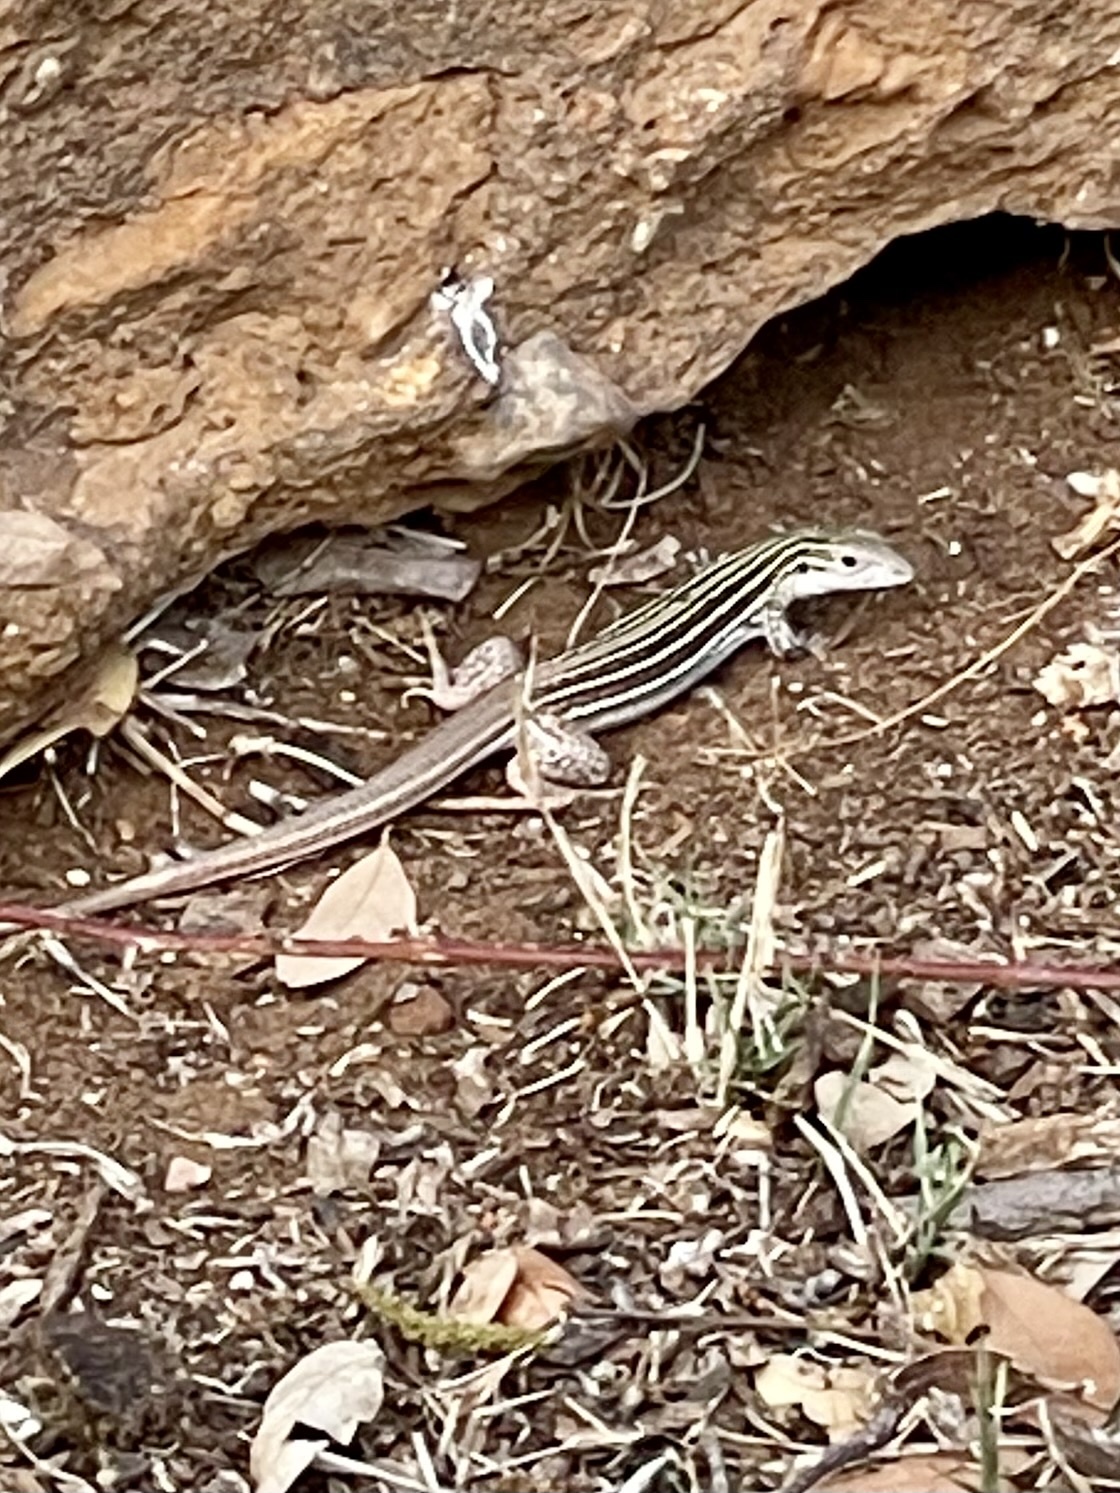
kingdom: Animalia
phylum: Chordata
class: Squamata
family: Teiidae
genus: Aspidoscelis
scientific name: Aspidoscelis gularis
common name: Eastern spotted whiptail
